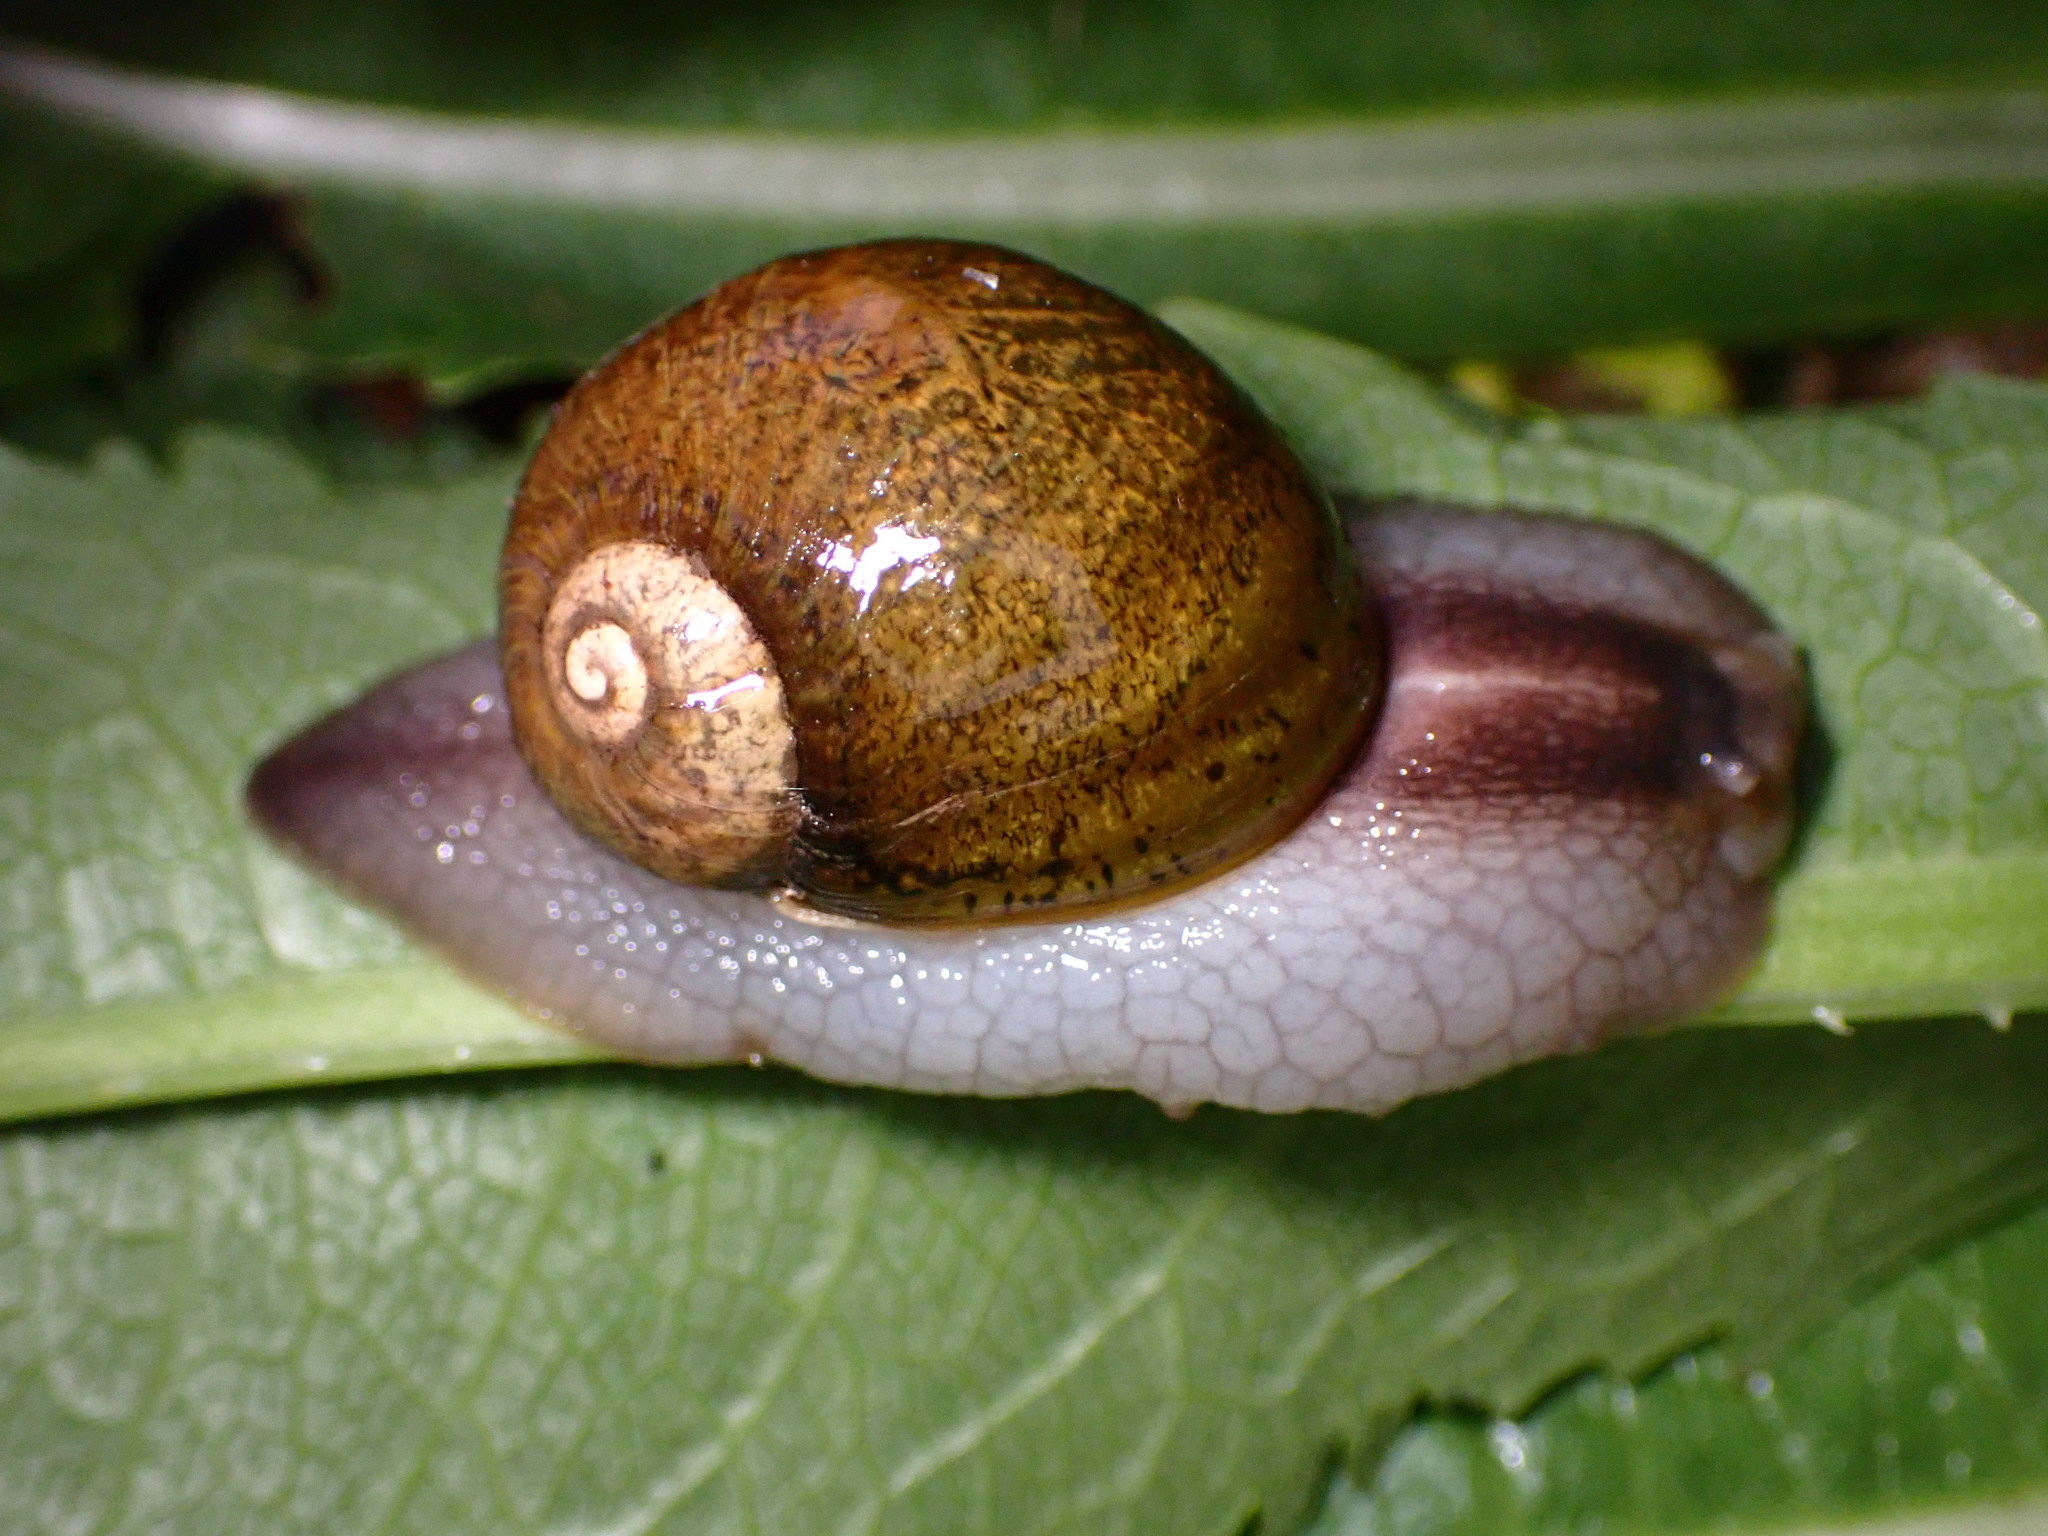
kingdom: Animalia
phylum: Mollusca
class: Gastropoda
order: Stylommatophora
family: Helicidae
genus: Cantareus
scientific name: Cantareus apertus
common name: Green gardensnail
